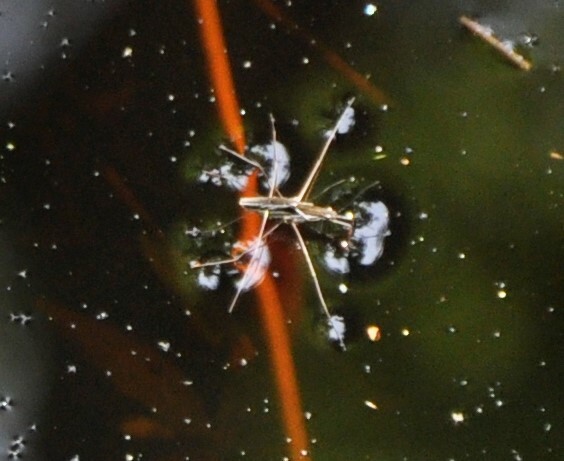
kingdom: Animalia
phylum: Arthropoda
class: Insecta
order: Hemiptera
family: Gerridae
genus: Limnoporus
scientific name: Limnoporus canaliculatus
